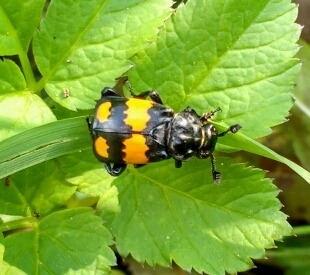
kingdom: Animalia
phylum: Arthropoda
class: Insecta
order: Coleoptera
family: Staphylinidae
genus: Nicrophorus
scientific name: Nicrophorus vespilloides
